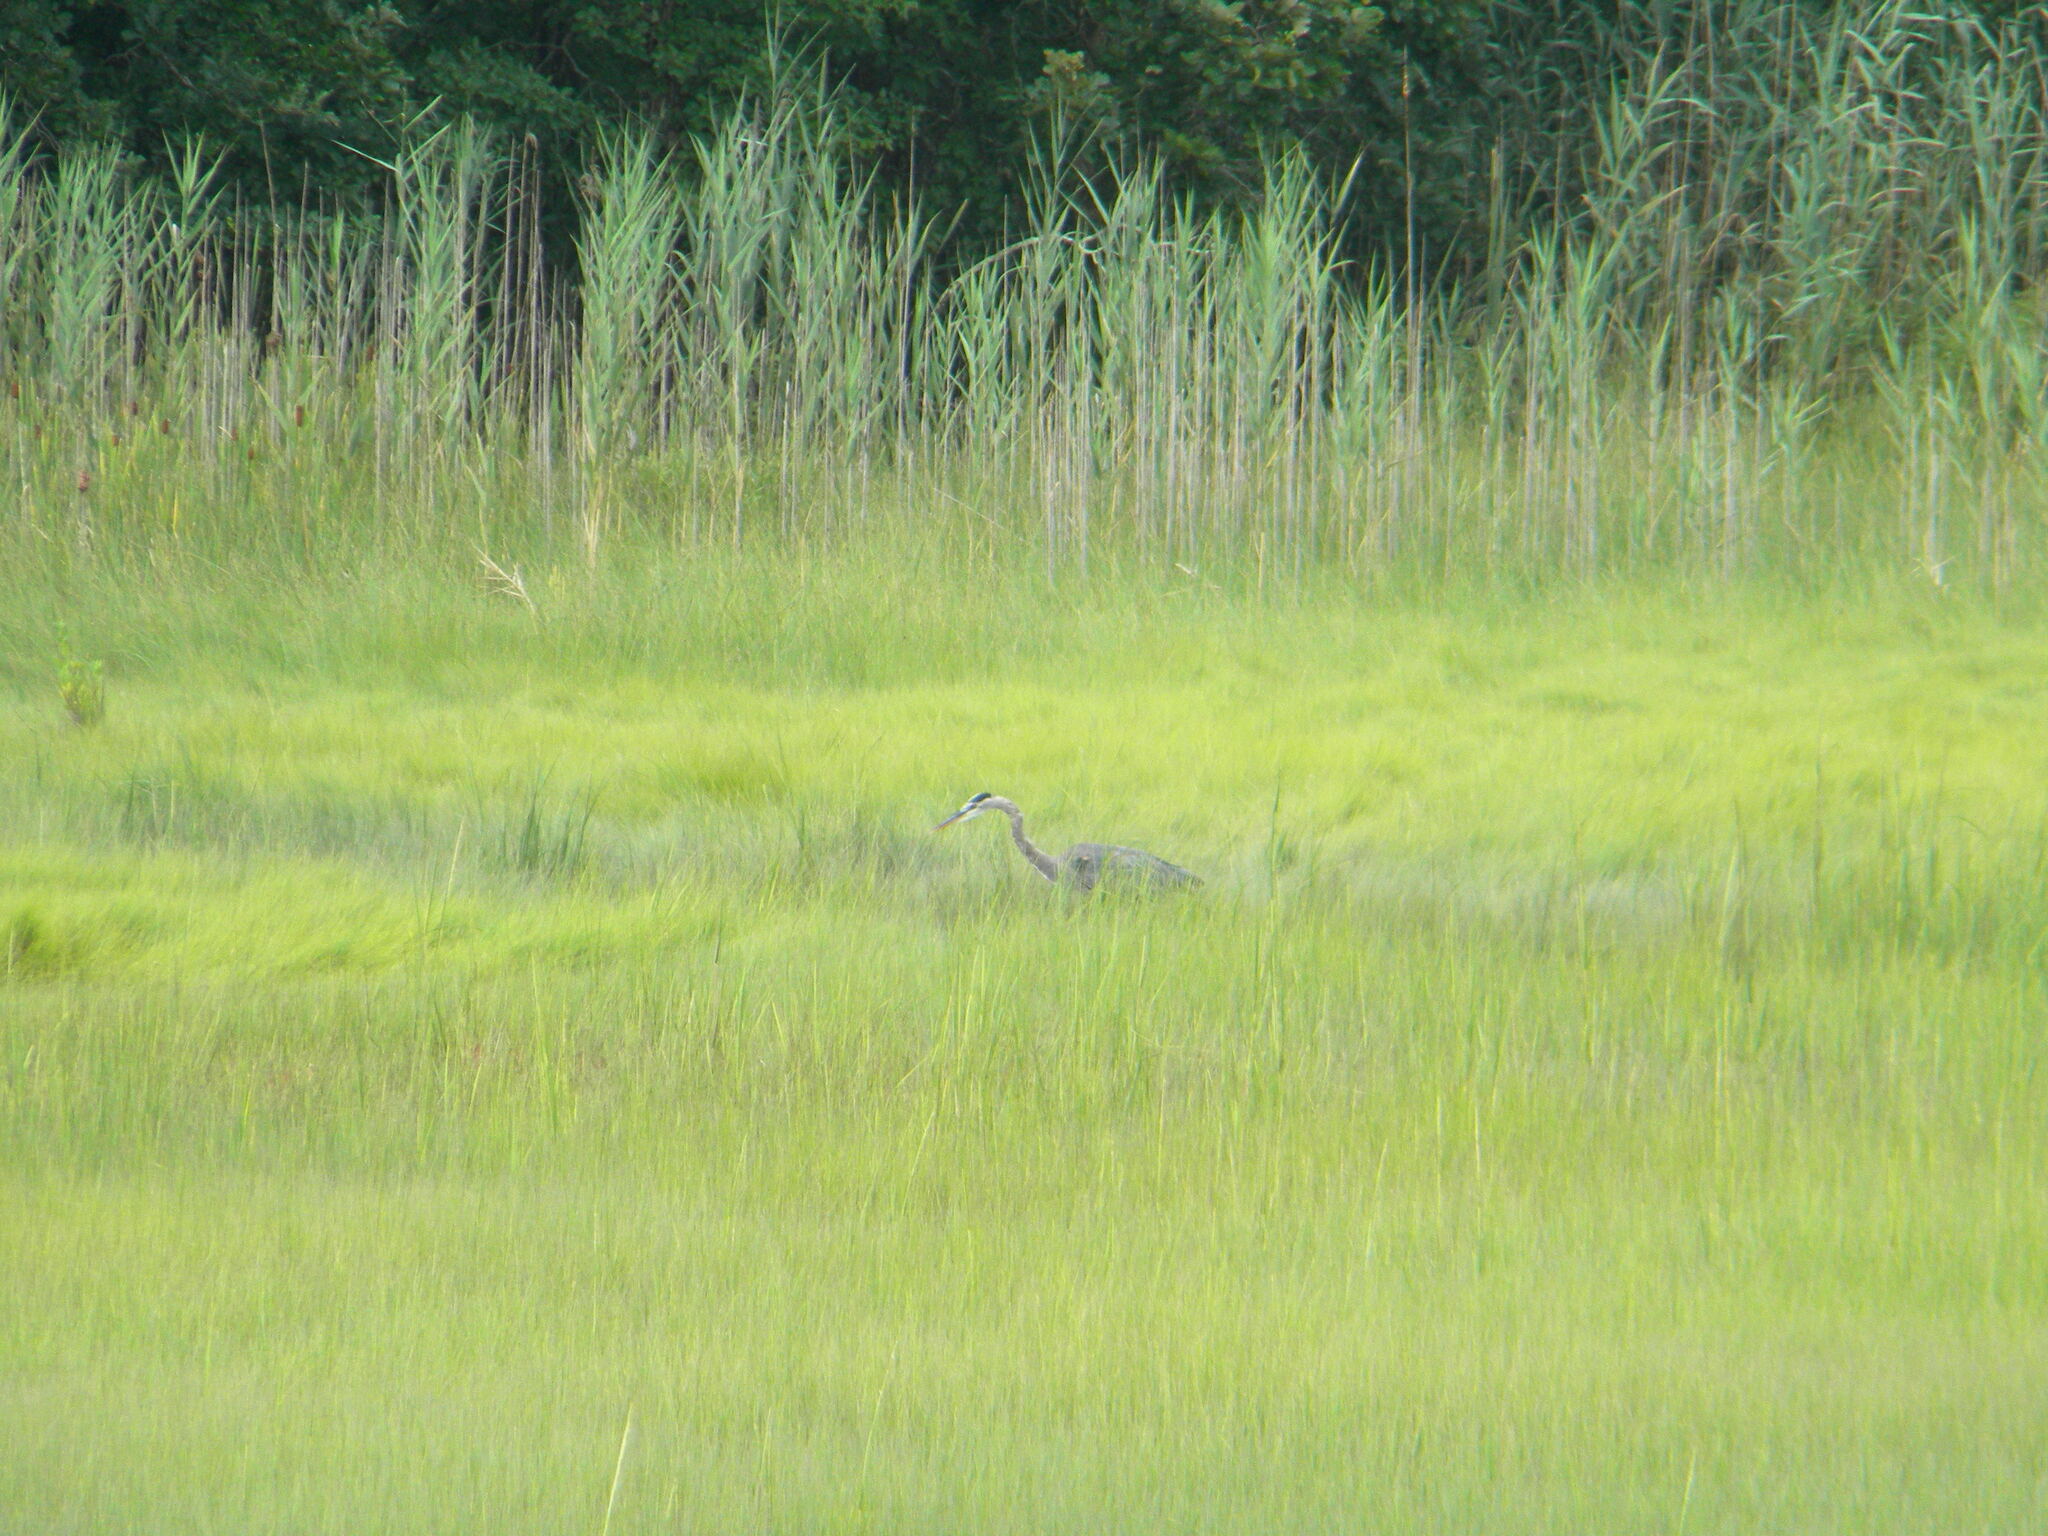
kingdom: Animalia
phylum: Chordata
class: Aves
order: Pelecaniformes
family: Ardeidae
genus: Ardea
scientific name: Ardea herodias
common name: Great blue heron
